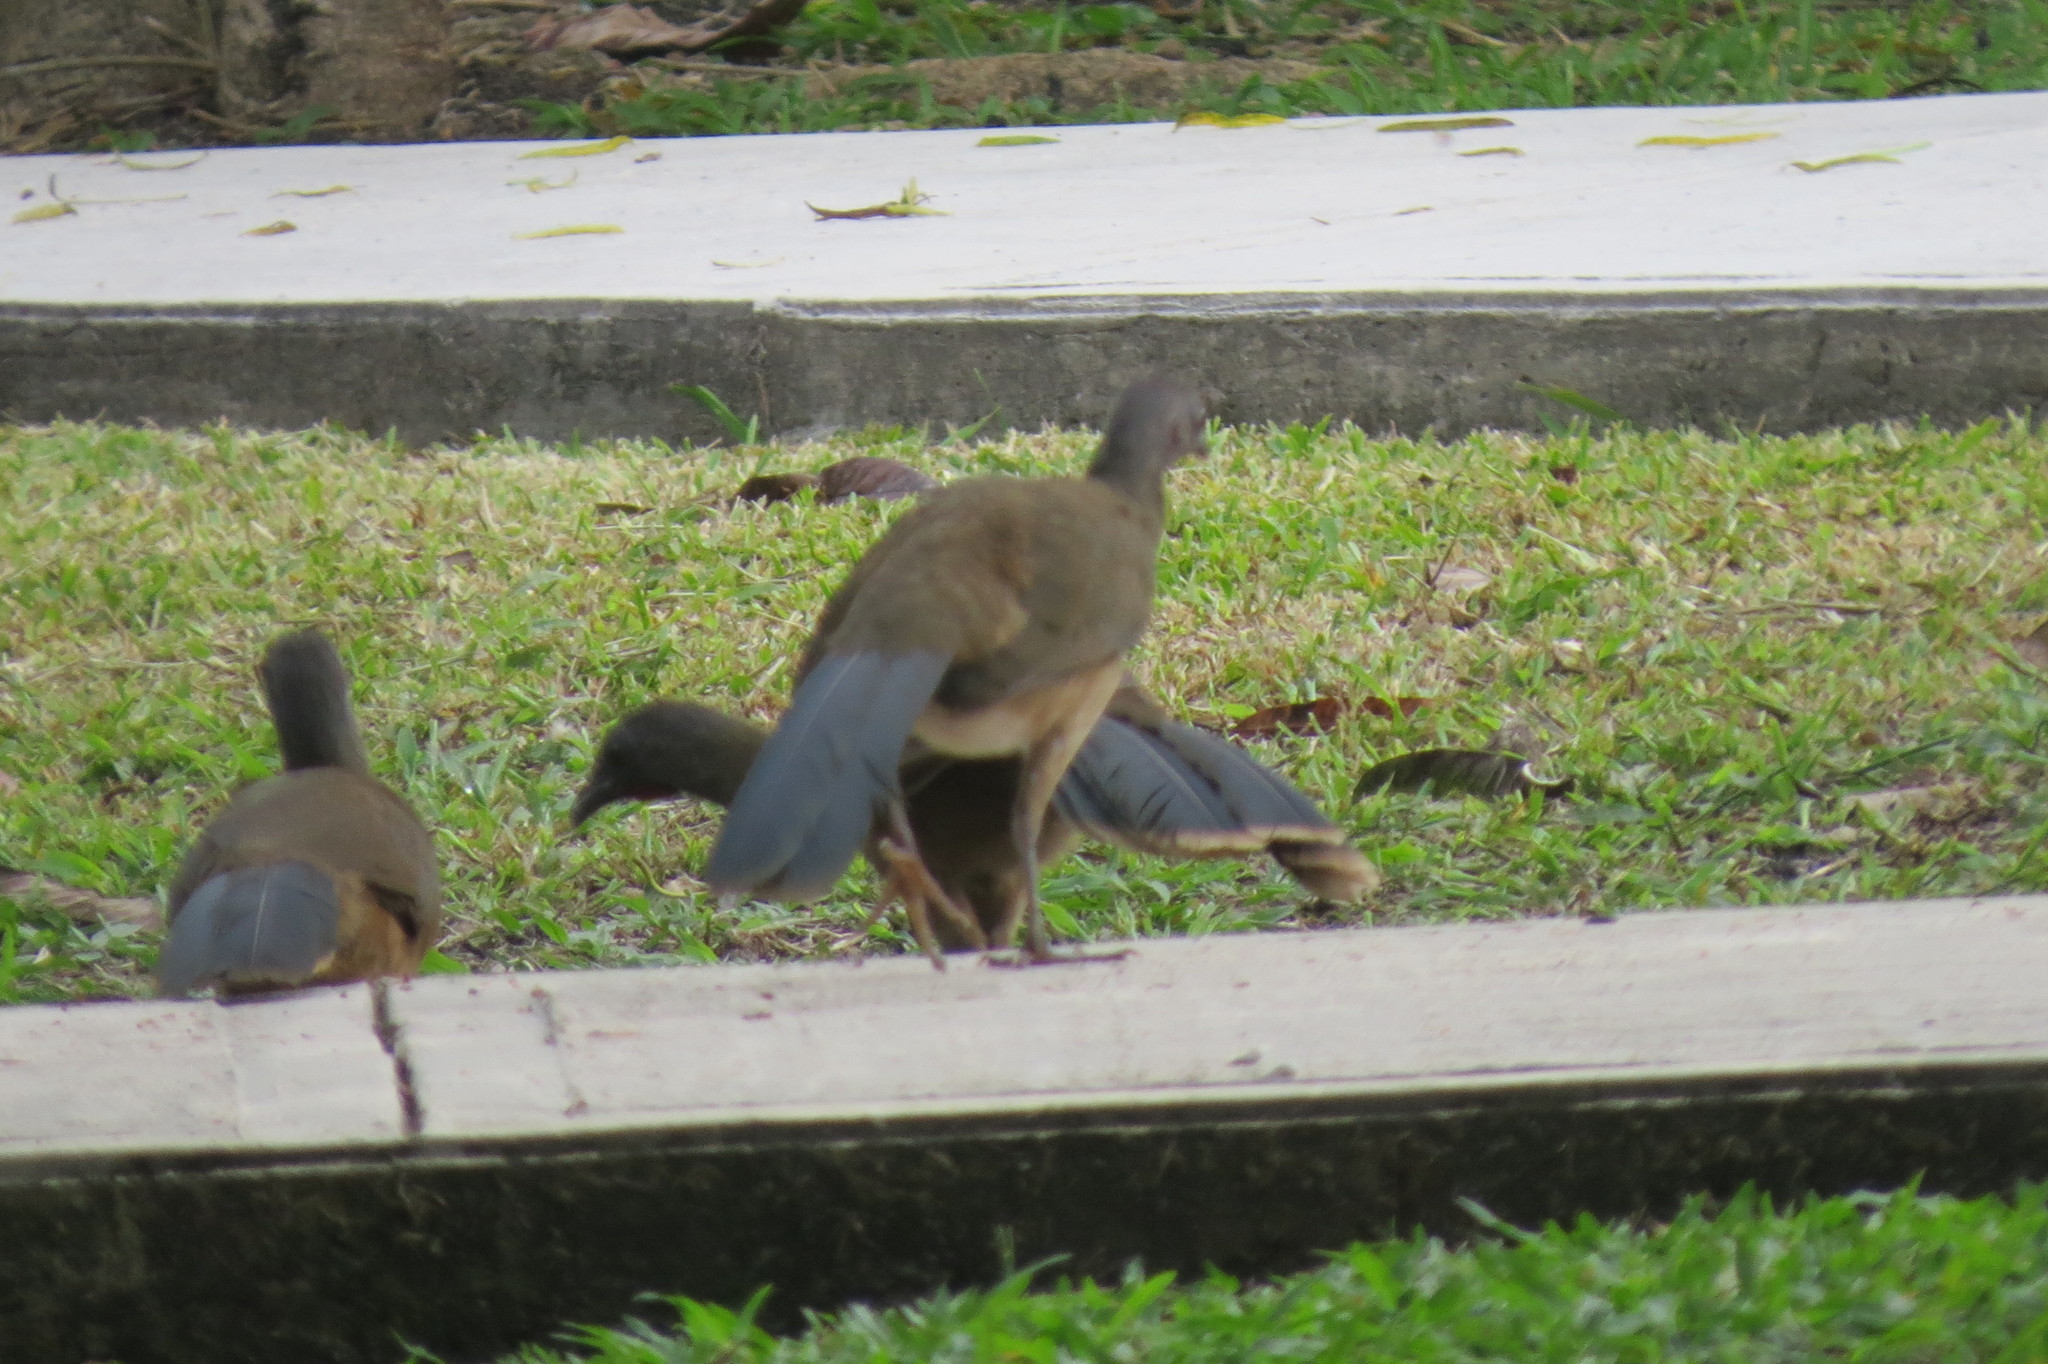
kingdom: Animalia
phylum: Chordata
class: Aves
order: Galliformes
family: Cracidae
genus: Ortalis
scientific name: Ortalis vetula
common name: Plain chachalaca
